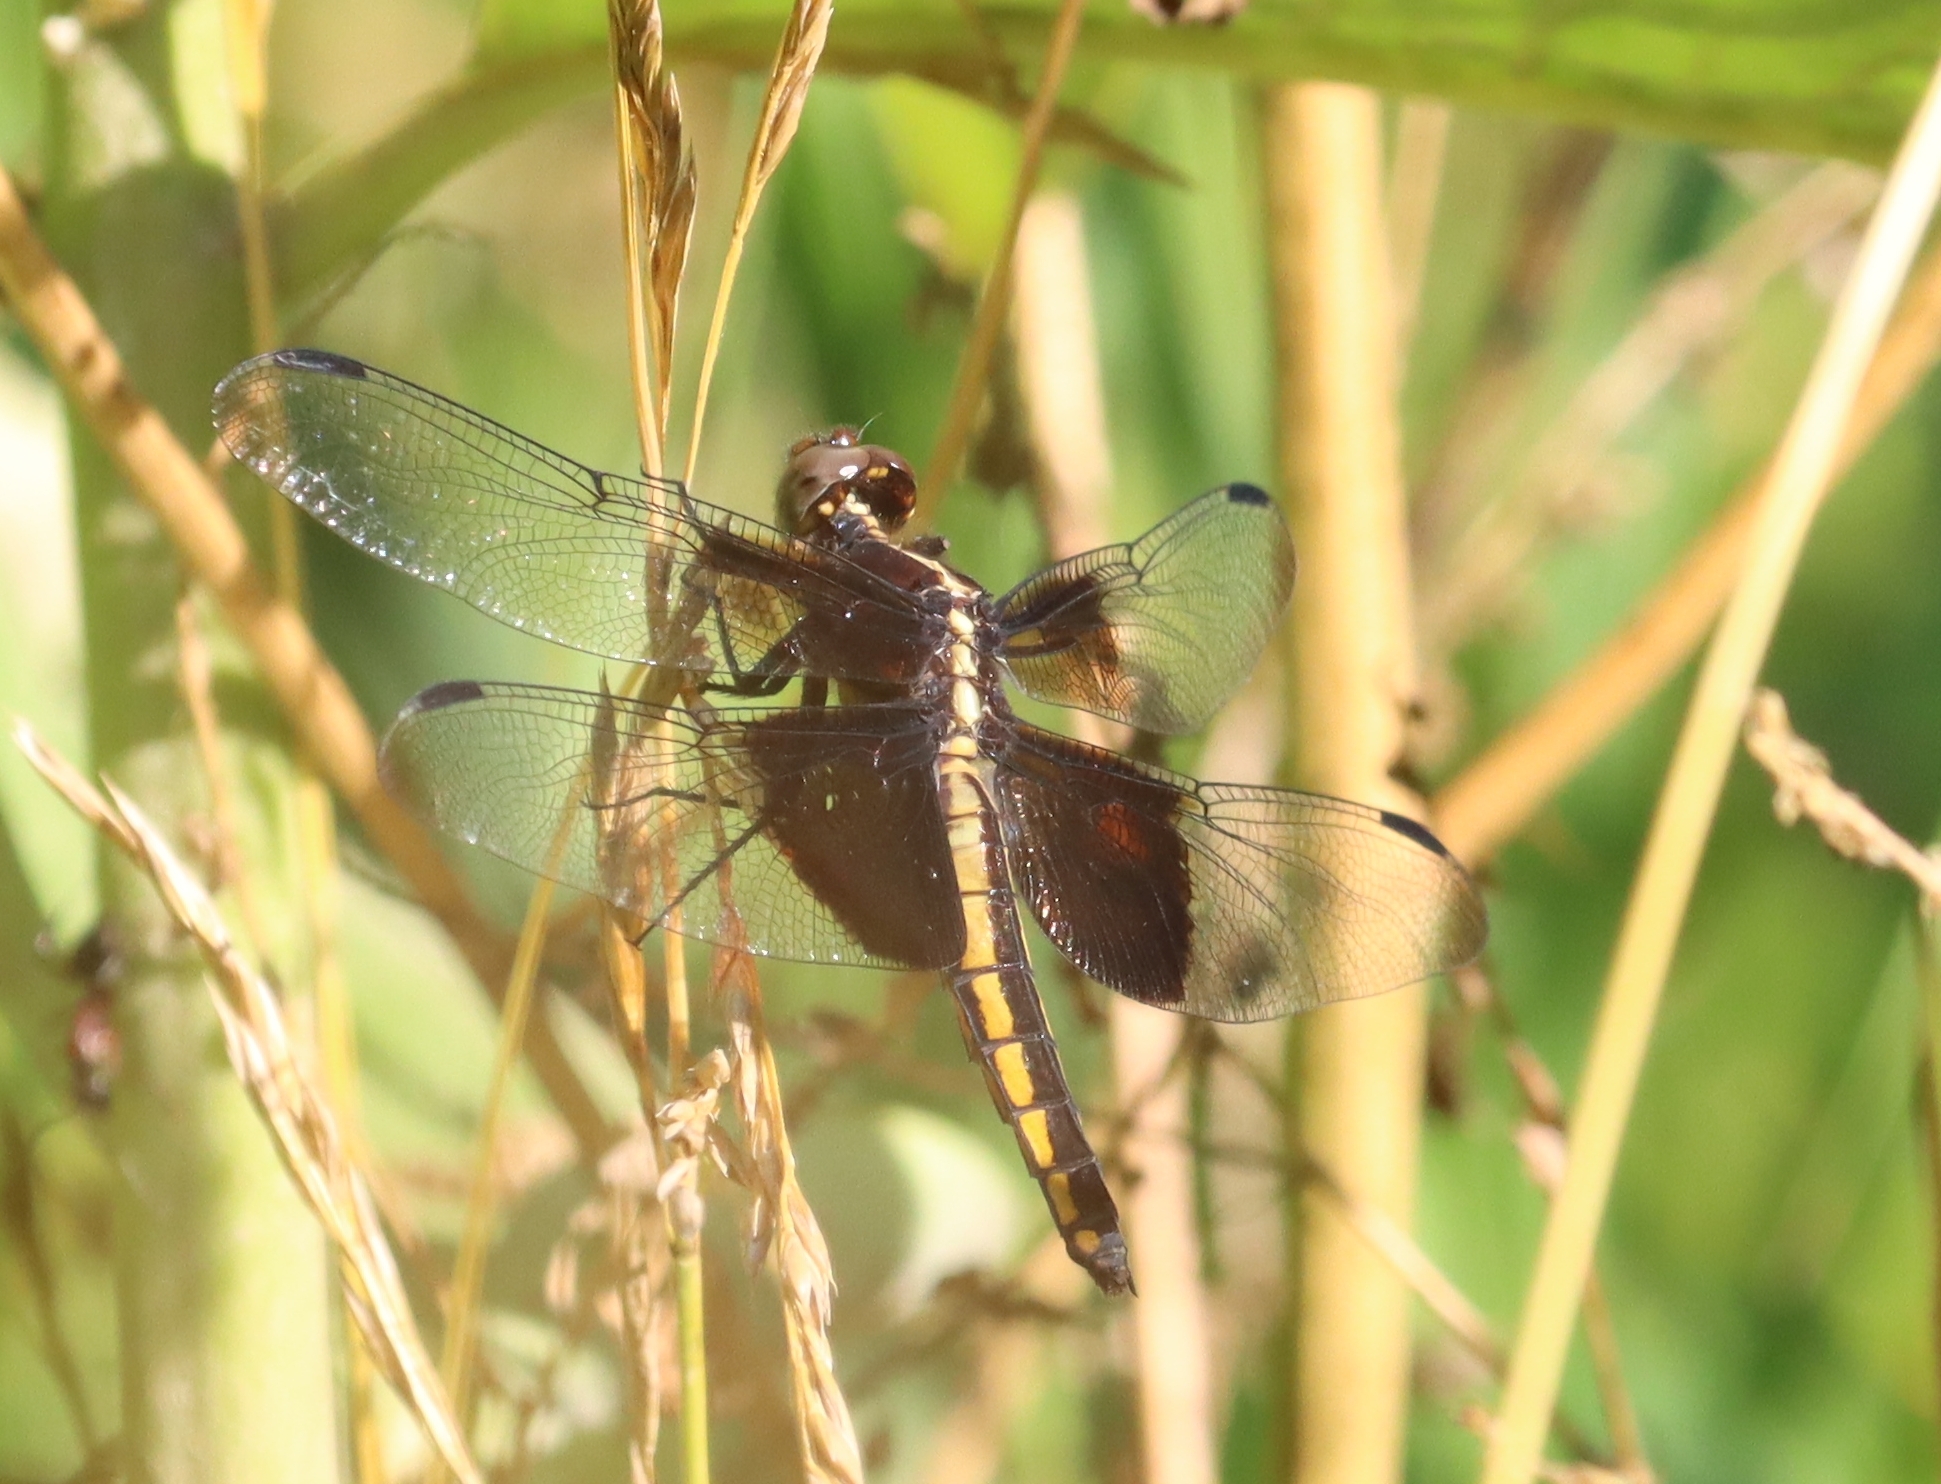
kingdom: Animalia
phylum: Arthropoda
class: Insecta
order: Odonata
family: Libellulidae
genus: Libellula
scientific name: Libellula luctuosa
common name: Widow skimmer
